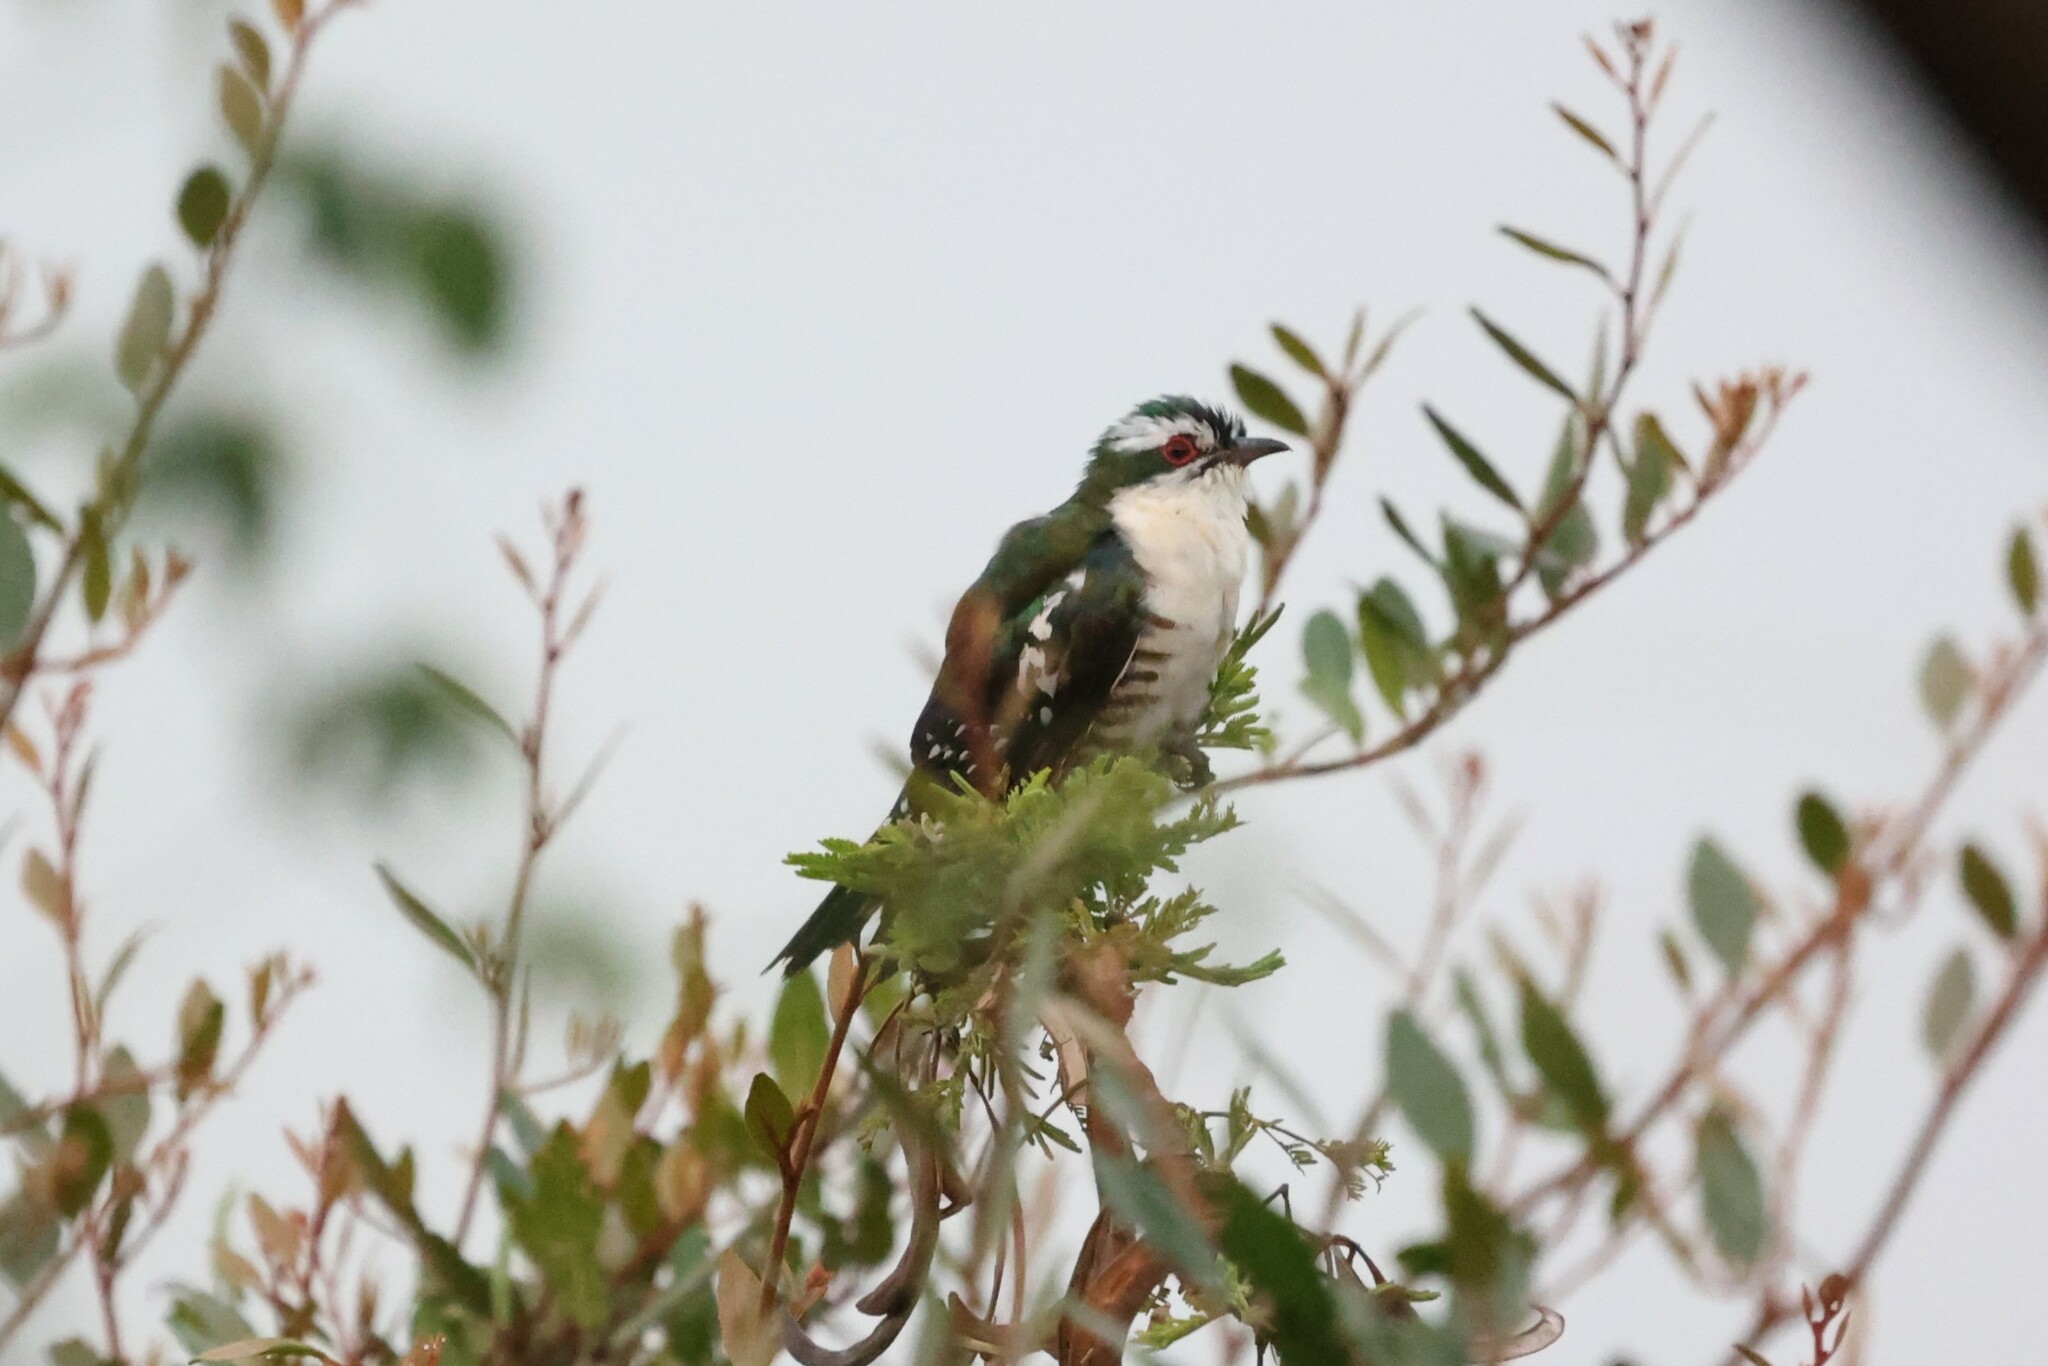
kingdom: Animalia
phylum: Chordata
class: Aves
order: Cuculiformes
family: Cuculidae
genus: Chrysococcyx
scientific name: Chrysococcyx caprius
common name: Diederik cuckoo
